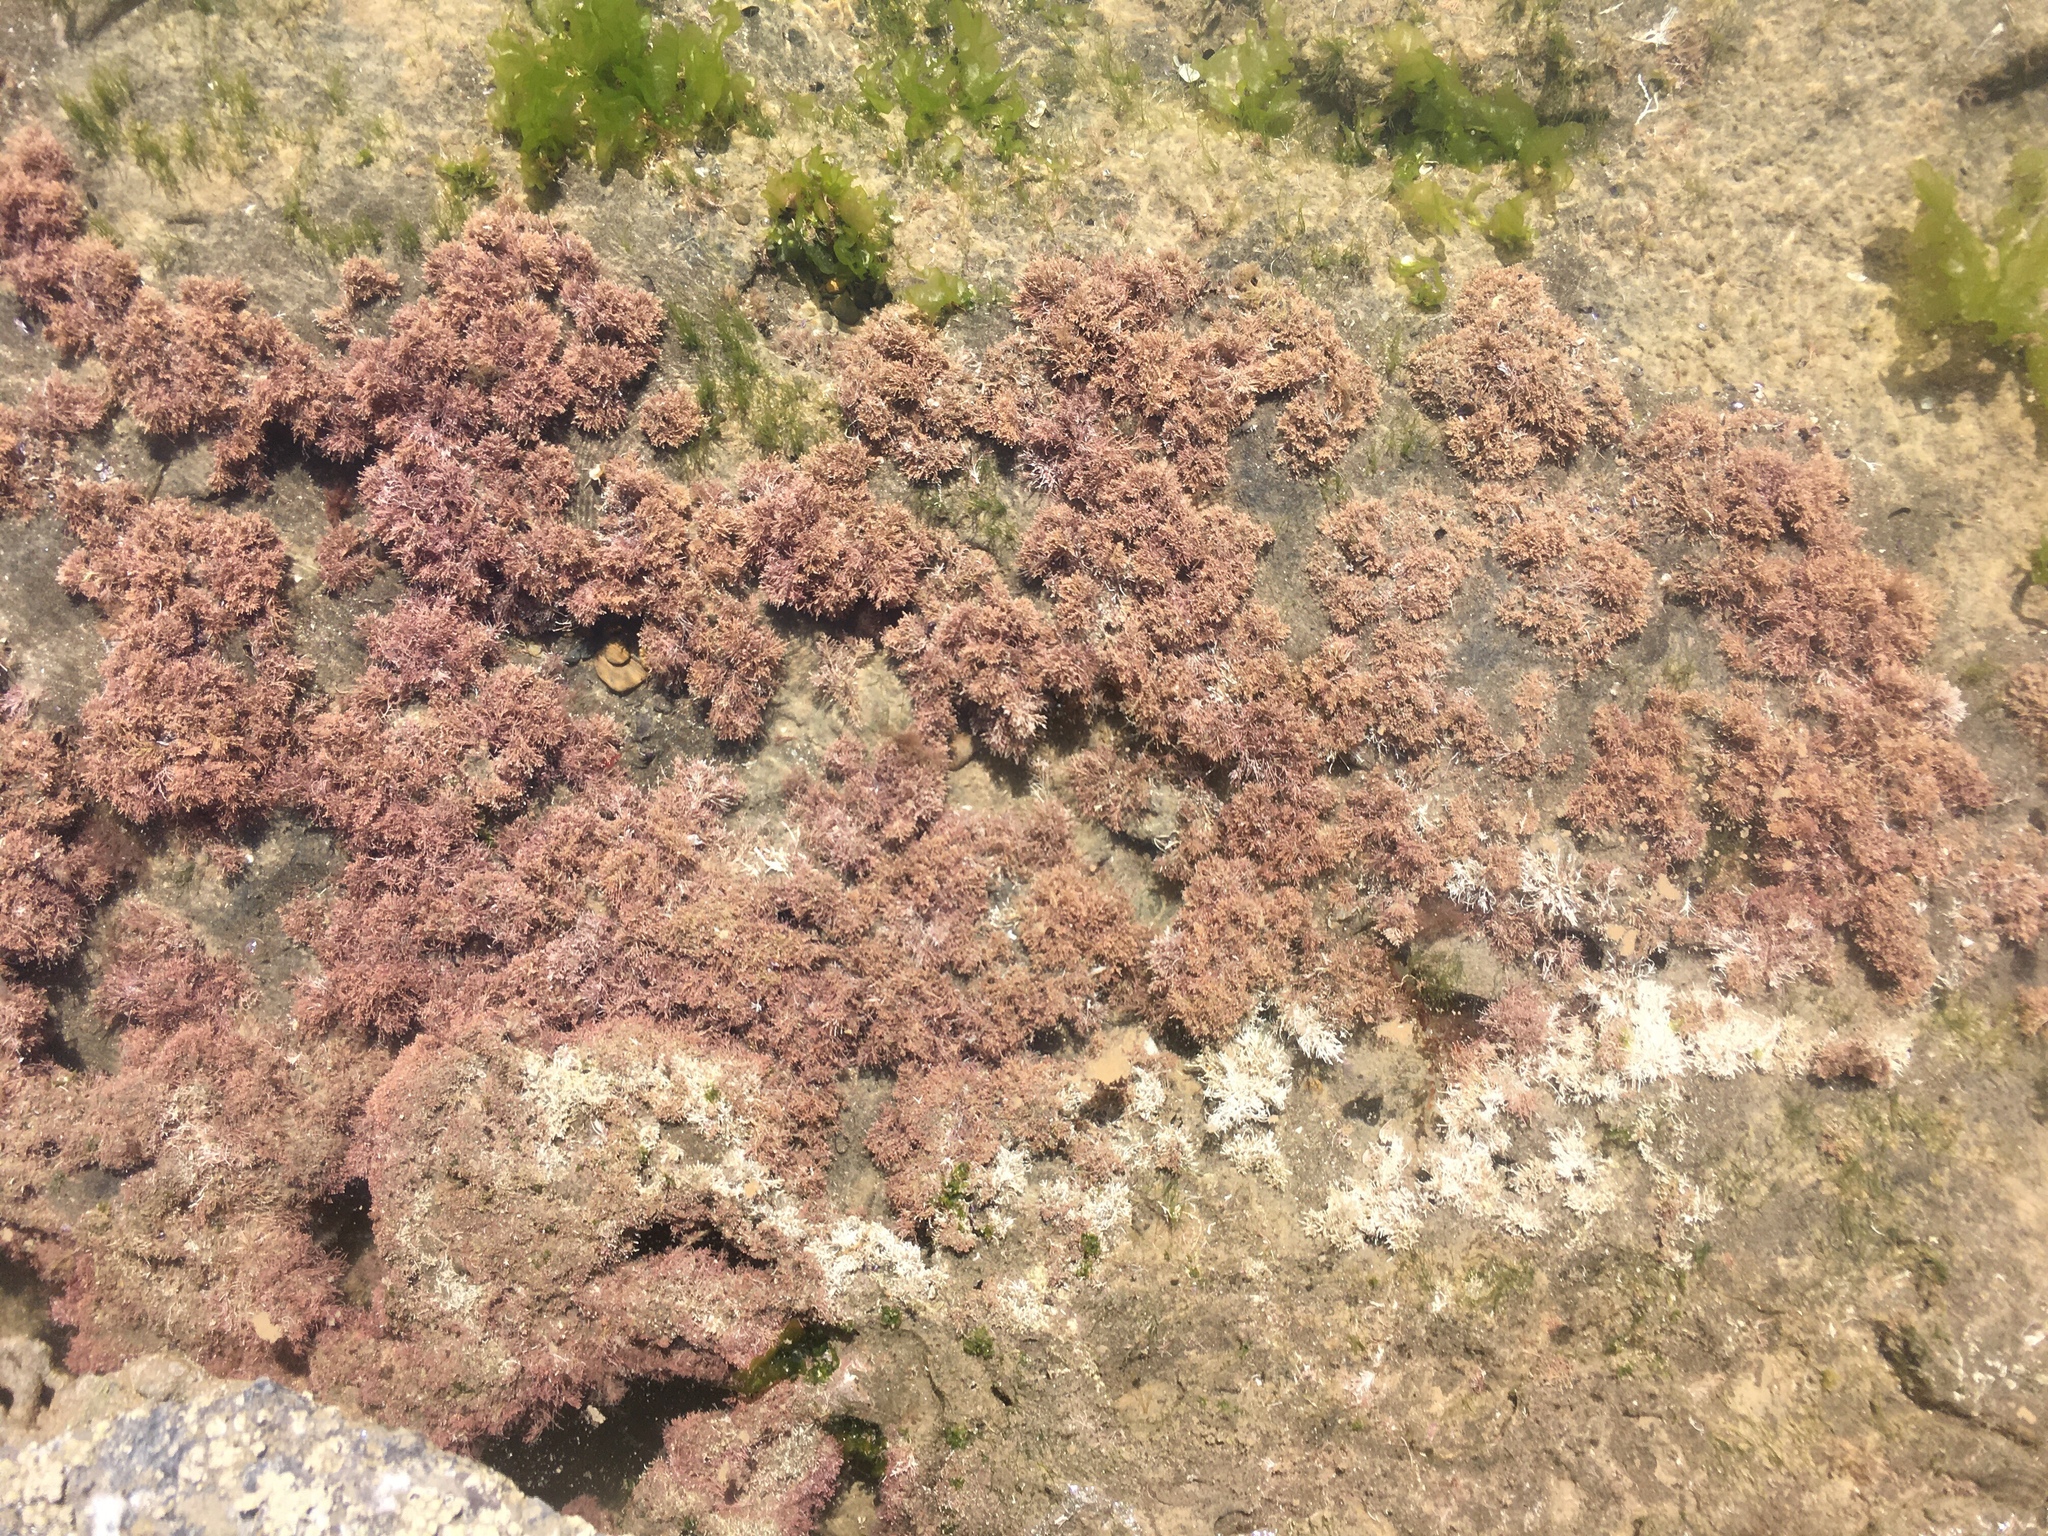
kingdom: Plantae
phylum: Rhodophyta
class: Florideophyceae
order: Corallinales
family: Corallinaceae
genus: Corallina
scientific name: Corallina officinalis
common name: Coral weed
